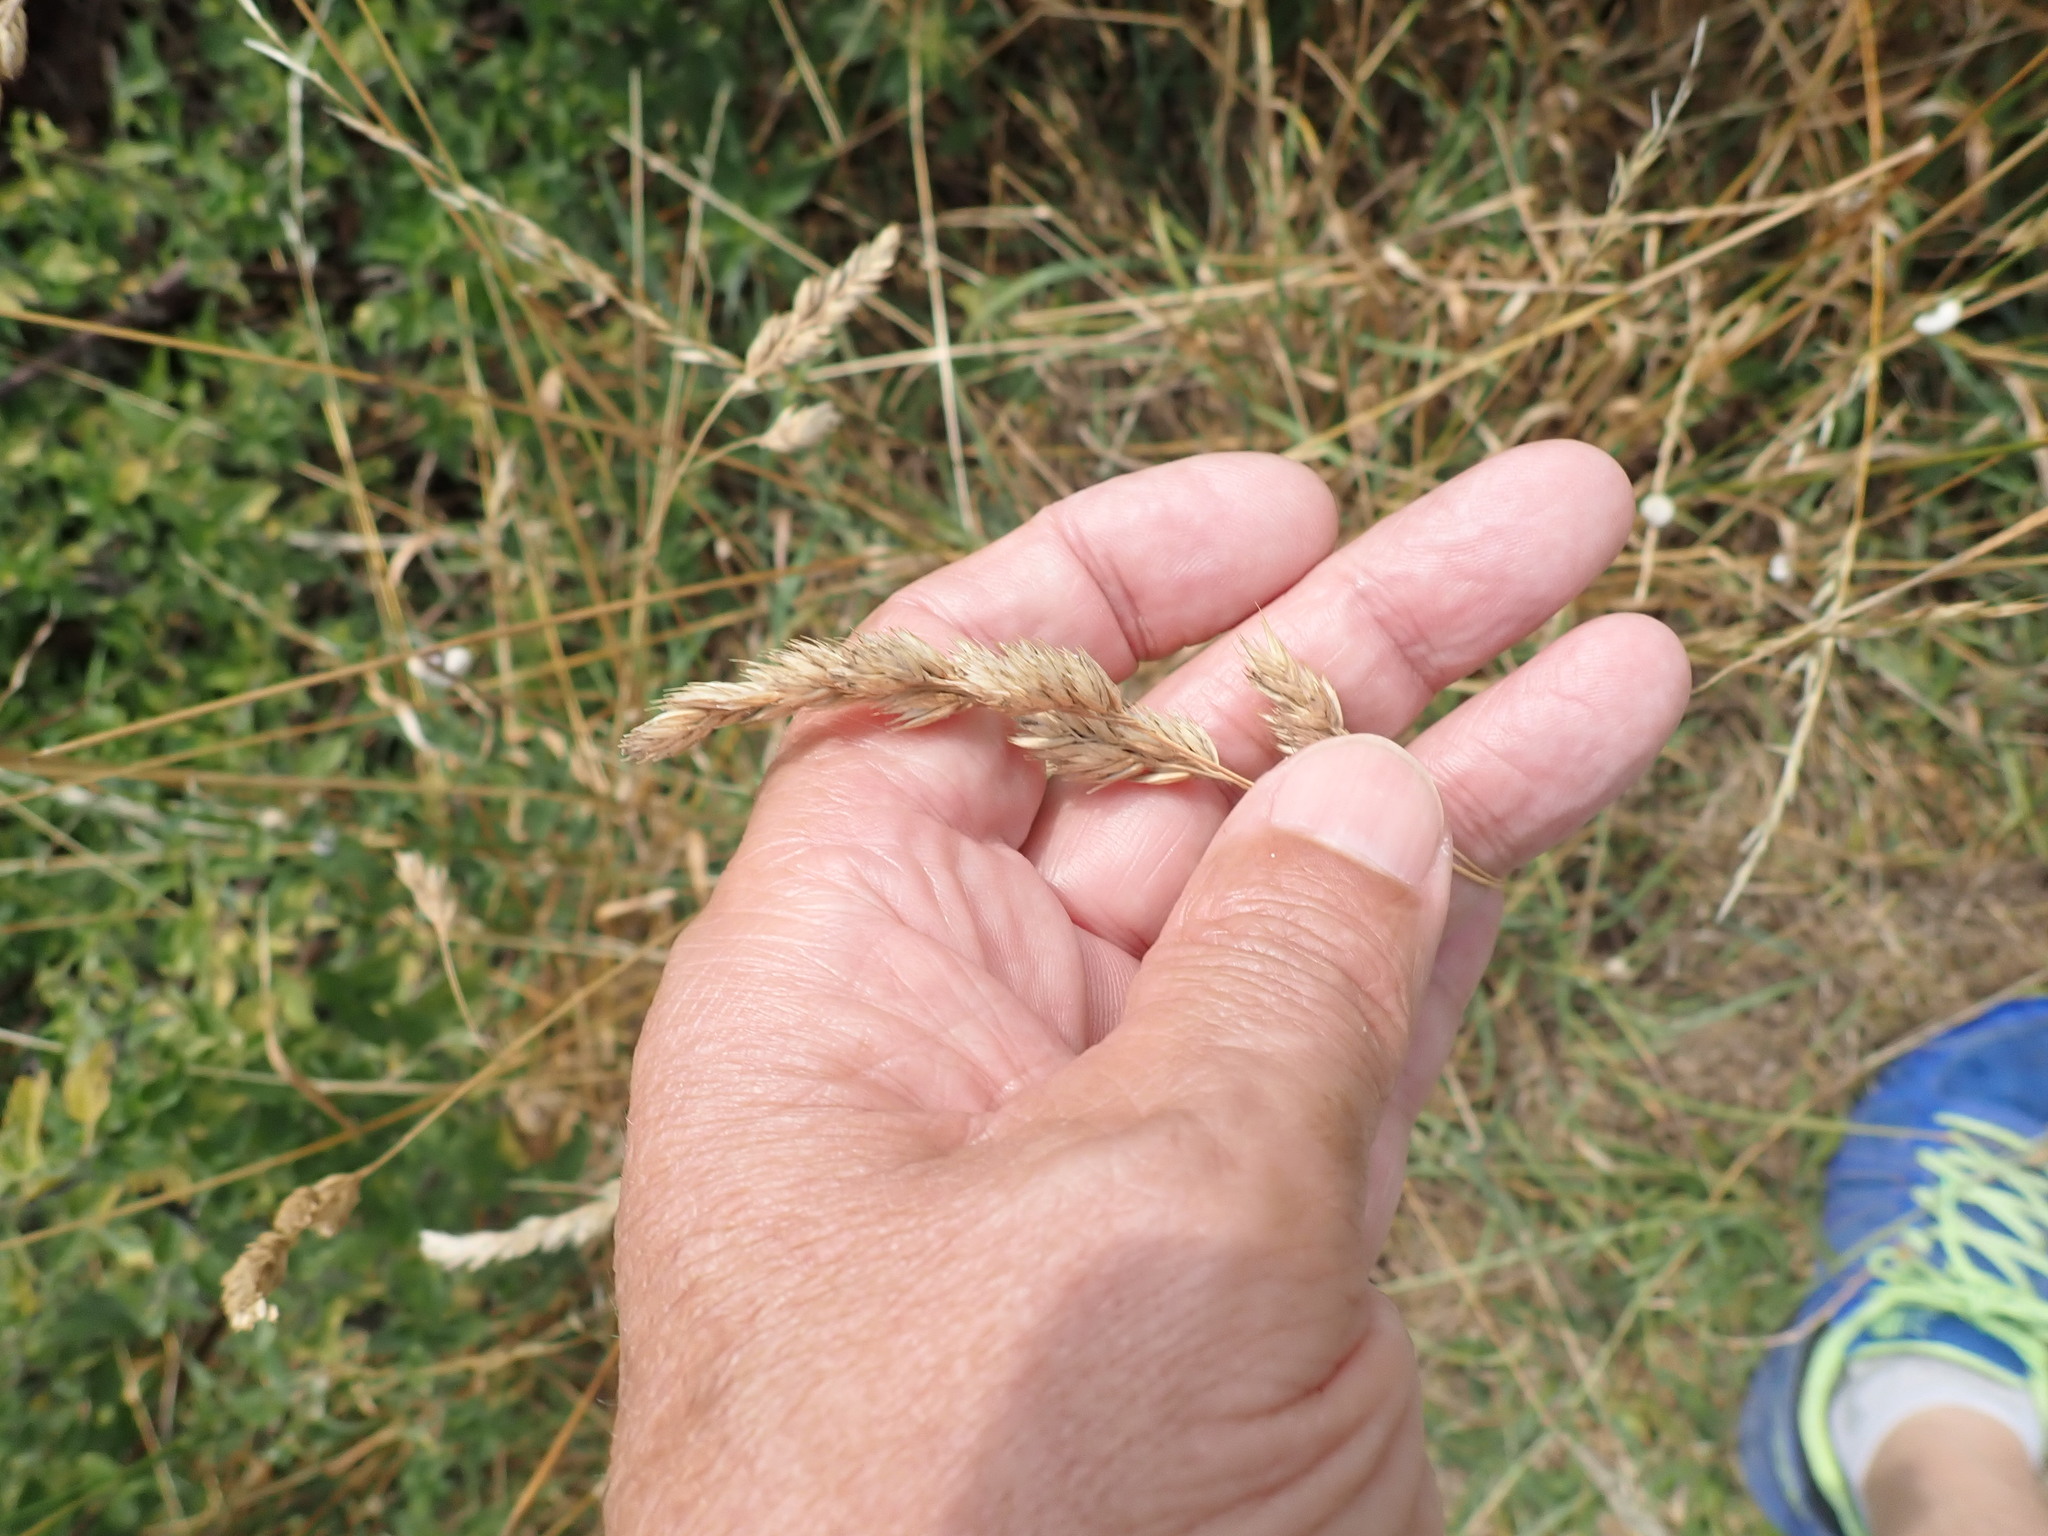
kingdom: Plantae
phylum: Tracheophyta
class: Liliopsida
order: Poales
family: Poaceae
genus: Dactylis
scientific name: Dactylis glomerata
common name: Orchardgrass
